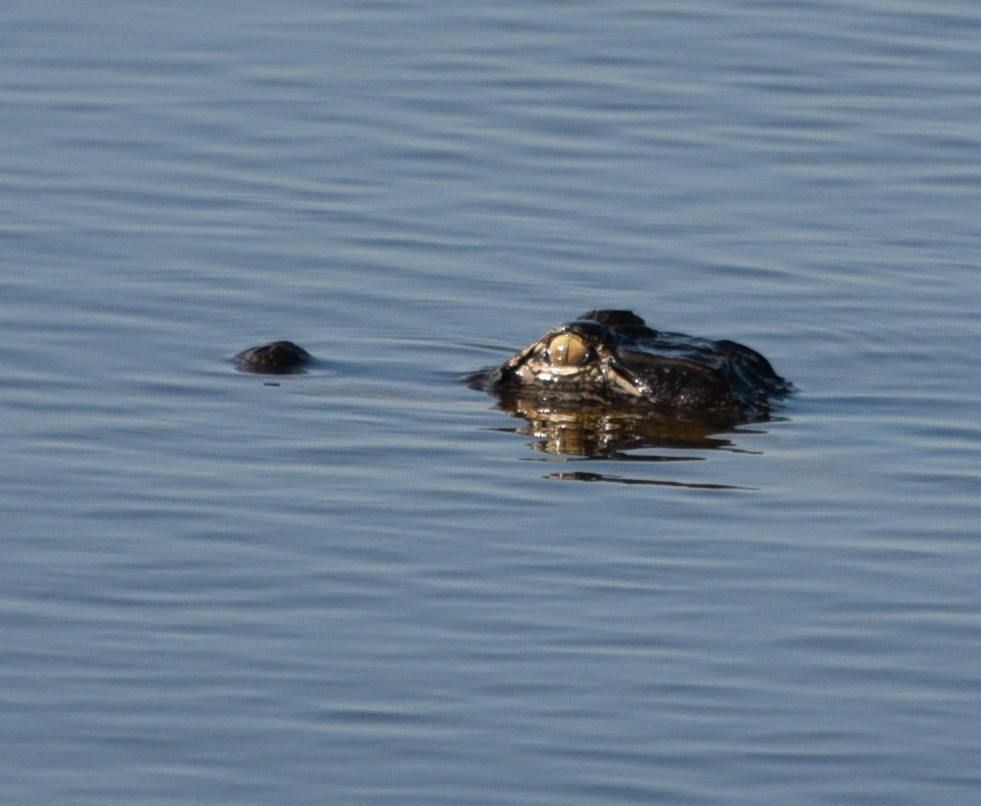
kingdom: Animalia
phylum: Chordata
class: Crocodylia
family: Alligatoridae
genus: Alligator
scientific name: Alligator mississippiensis
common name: American alligator
